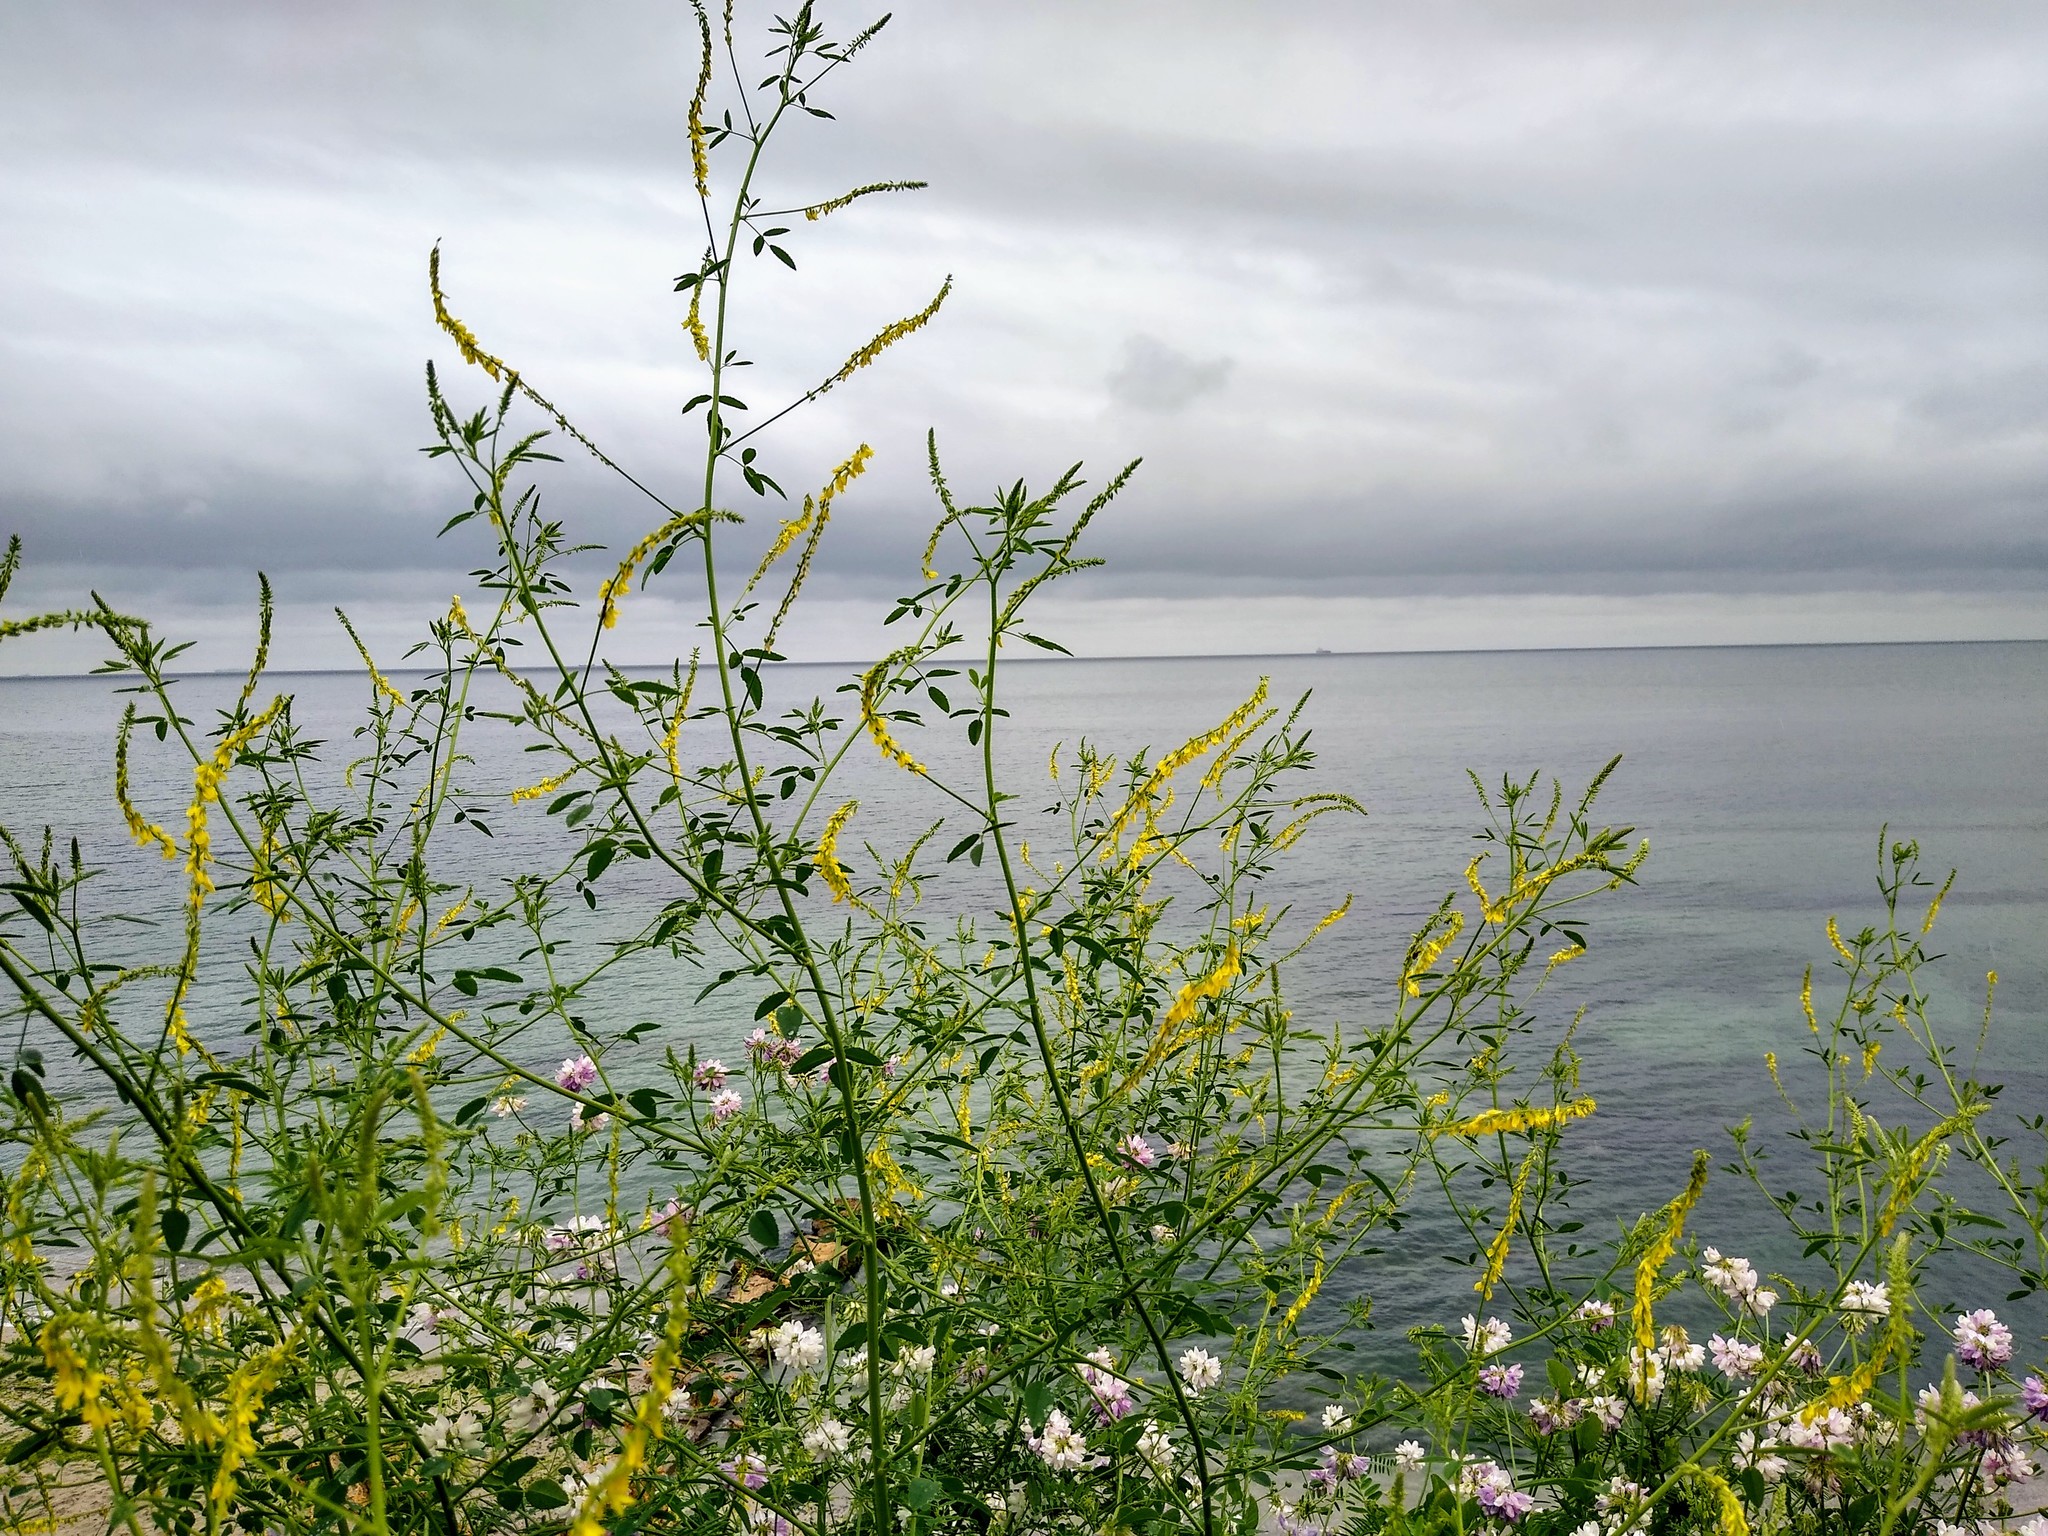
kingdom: Plantae
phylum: Tracheophyta
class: Magnoliopsida
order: Fabales
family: Fabaceae
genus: Melilotus
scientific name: Melilotus officinalis
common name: Sweetclover
